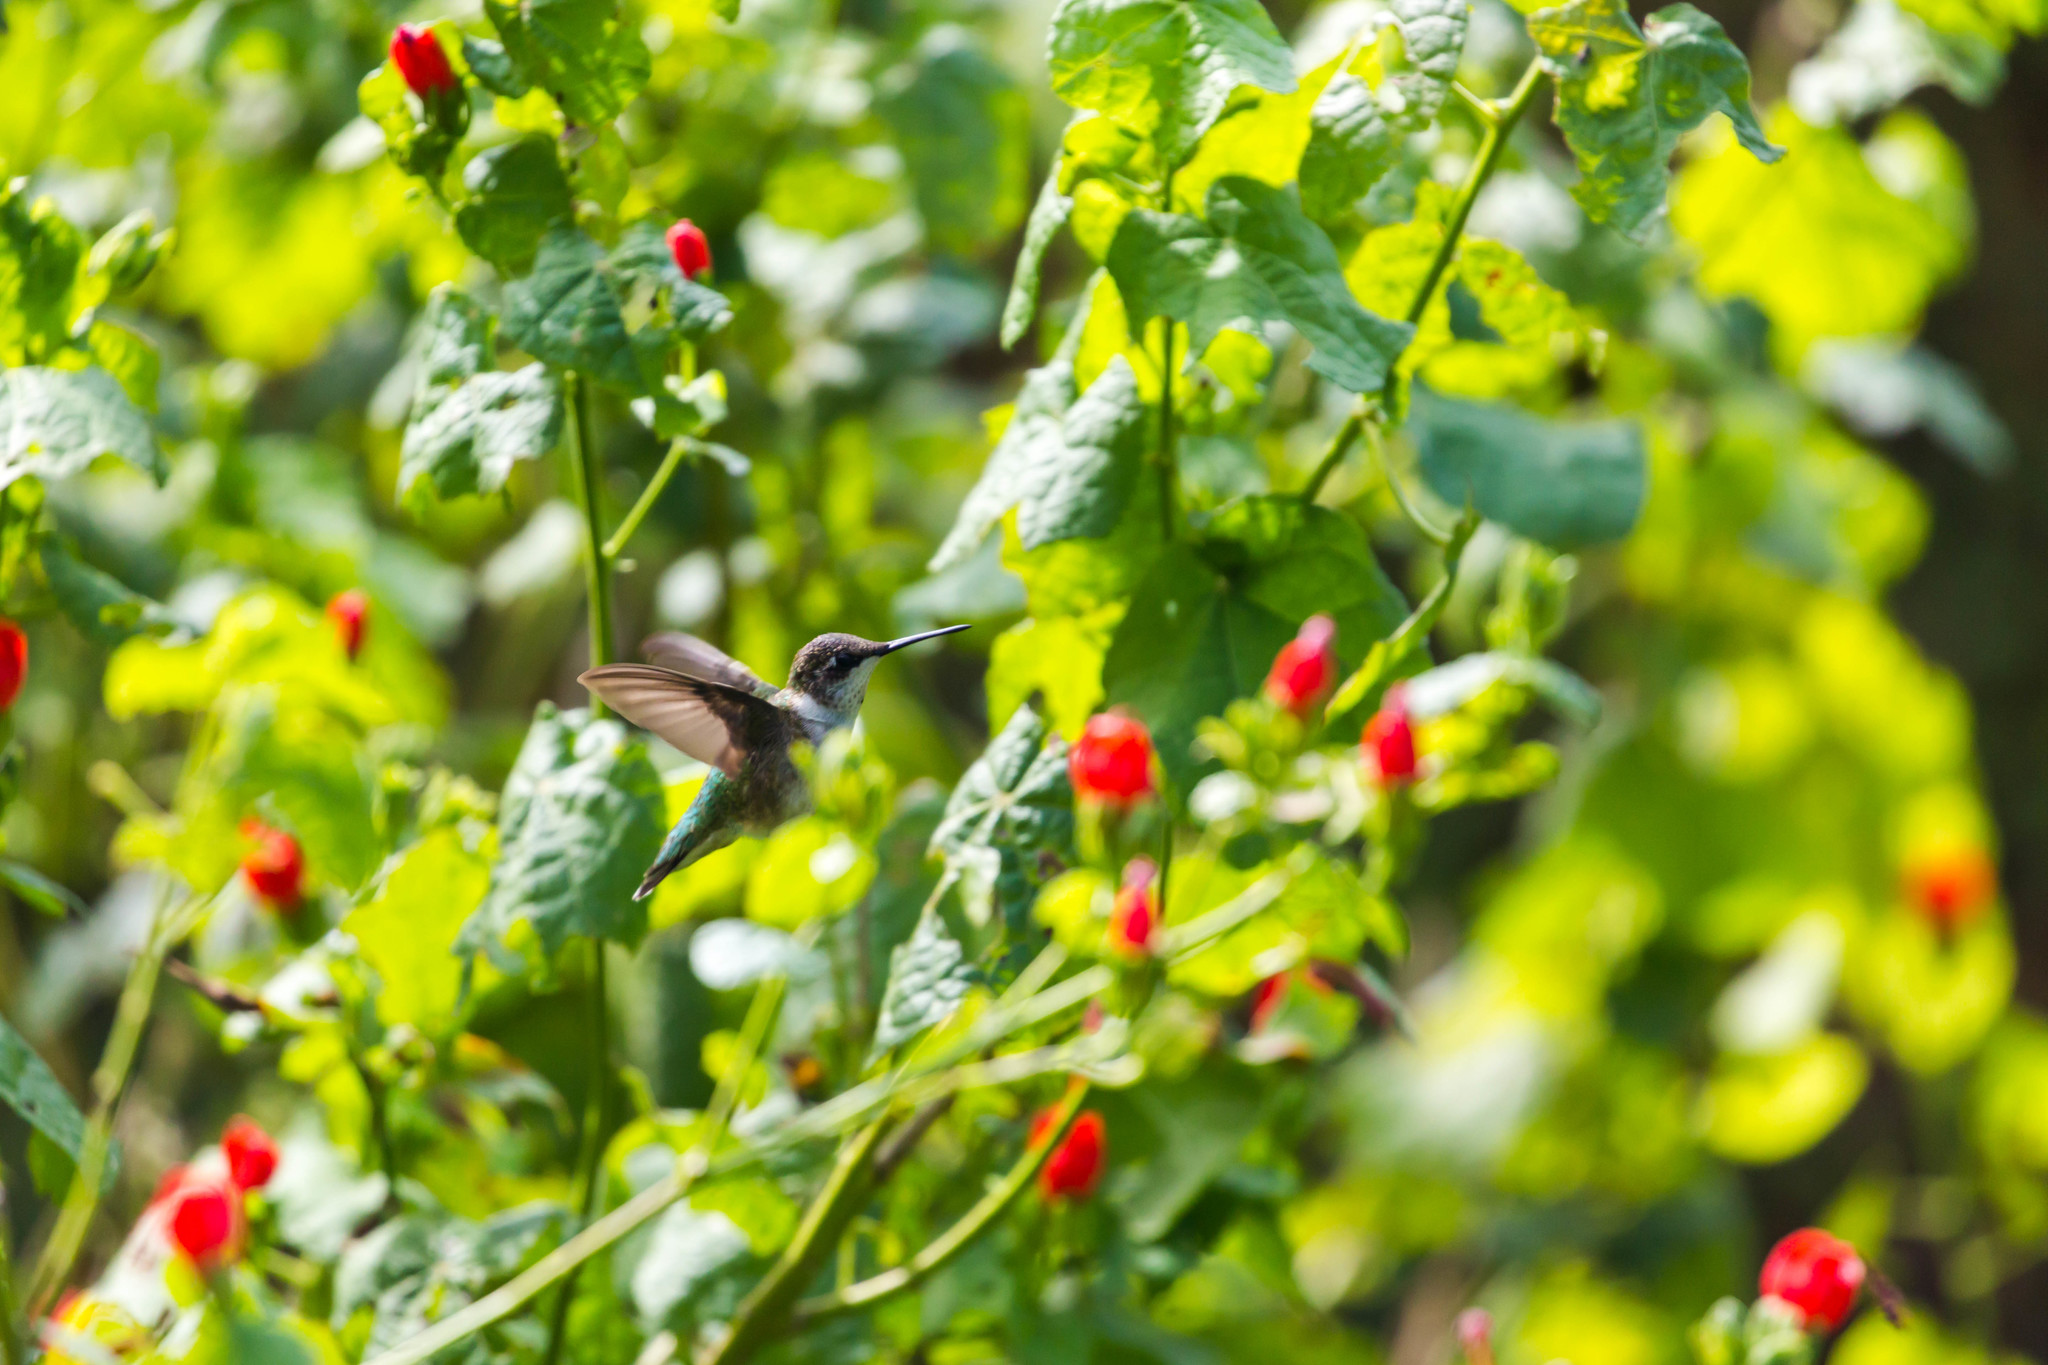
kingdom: Animalia
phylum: Chordata
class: Aves
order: Apodiformes
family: Trochilidae
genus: Archilochus
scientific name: Archilochus colubris
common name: Ruby-throated hummingbird
